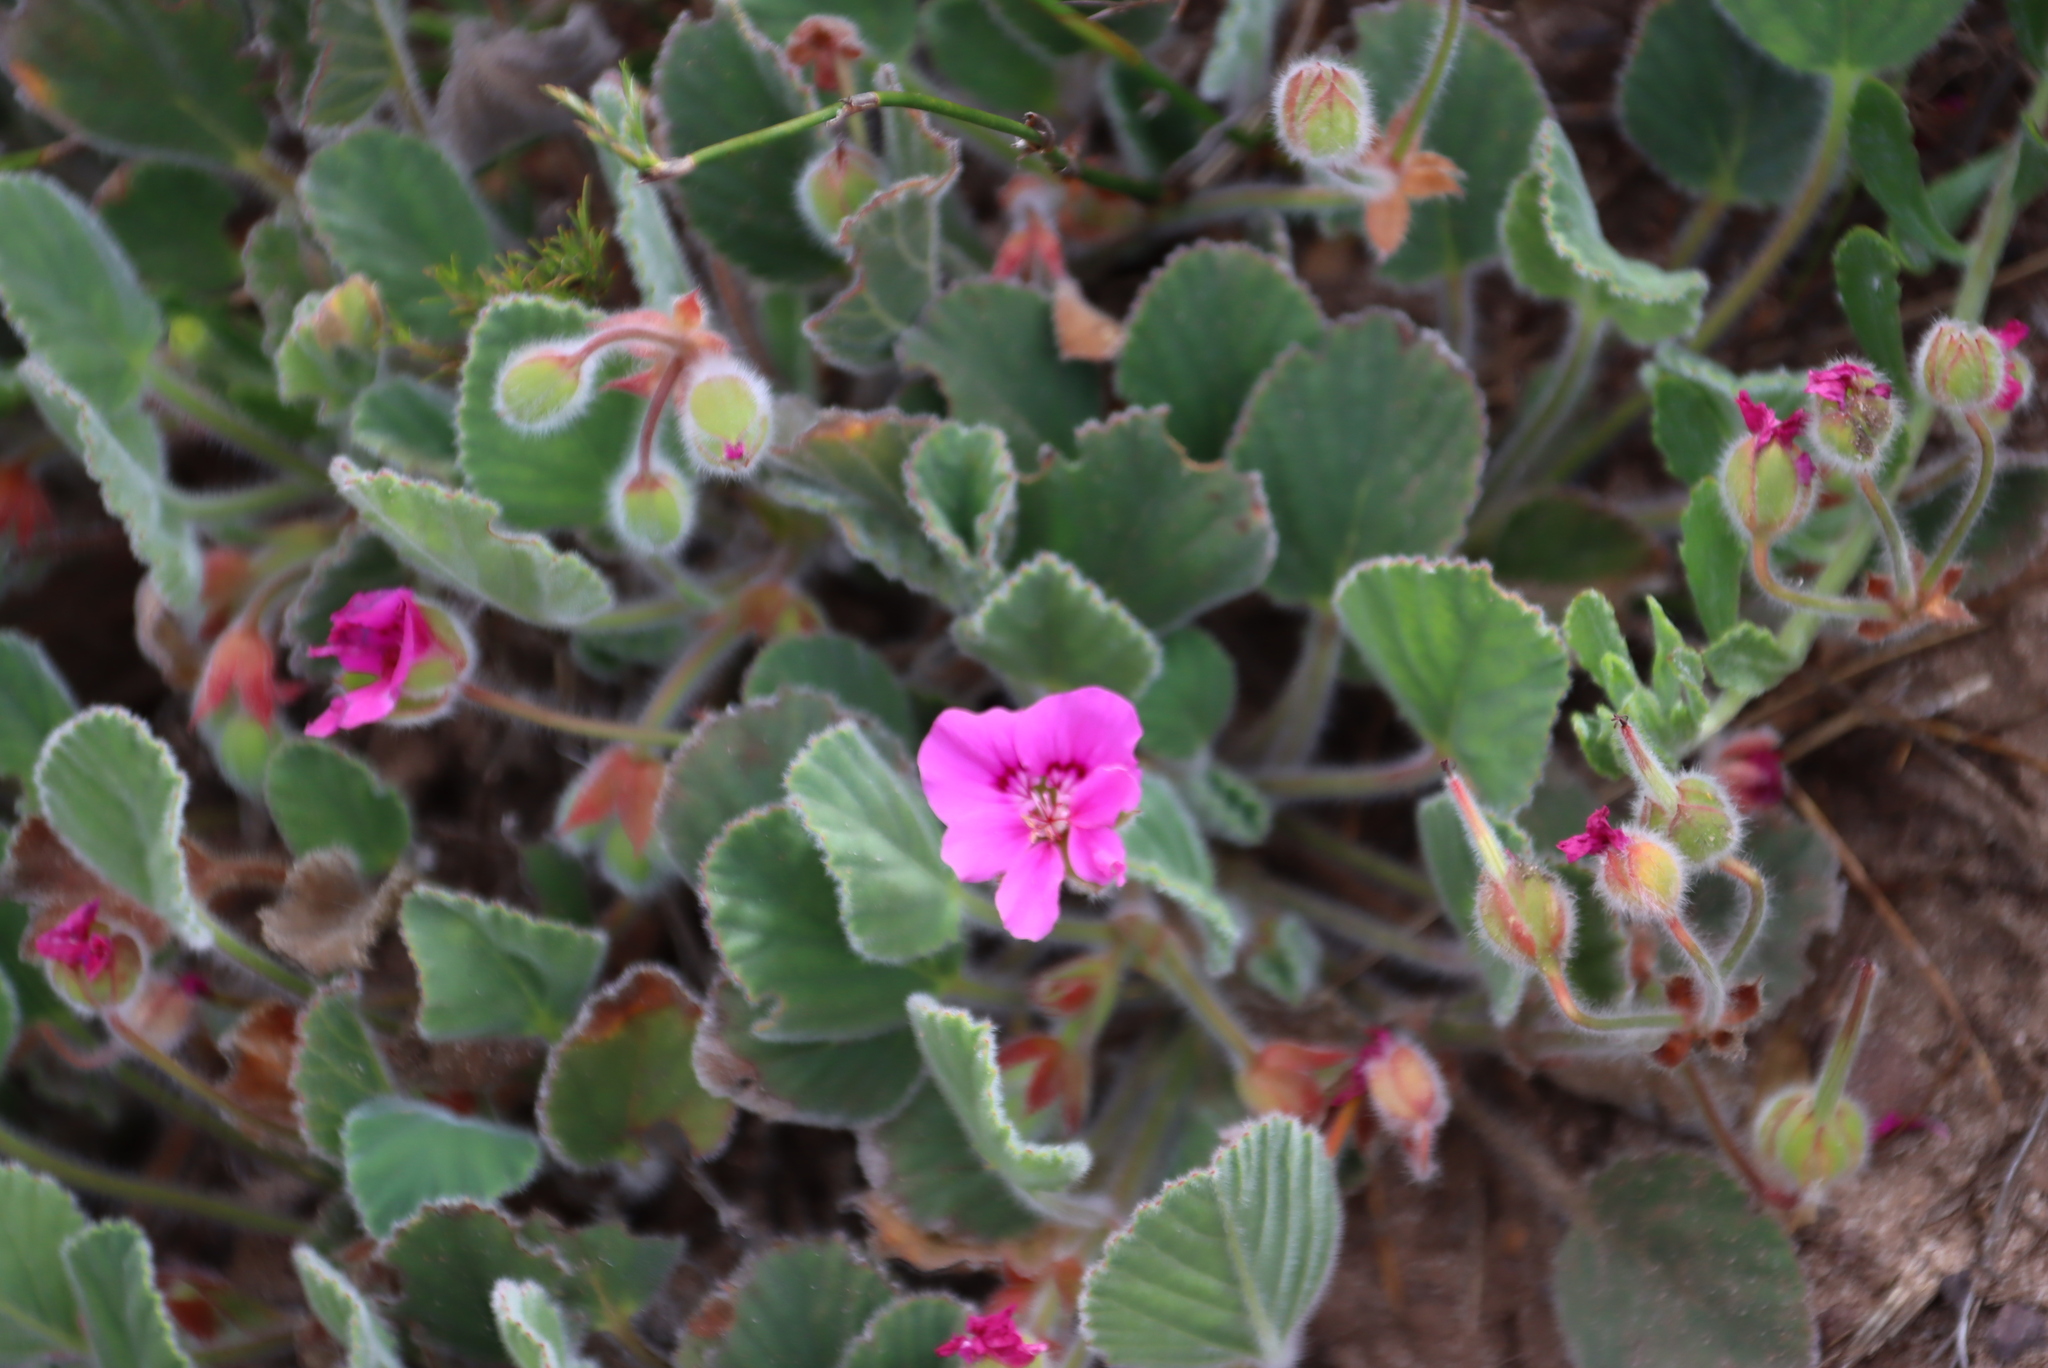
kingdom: Plantae
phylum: Tracheophyta
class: Magnoliopsida
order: Geraniales
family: Geraniaceae
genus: Pelargonium
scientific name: Pelargonium ovale
